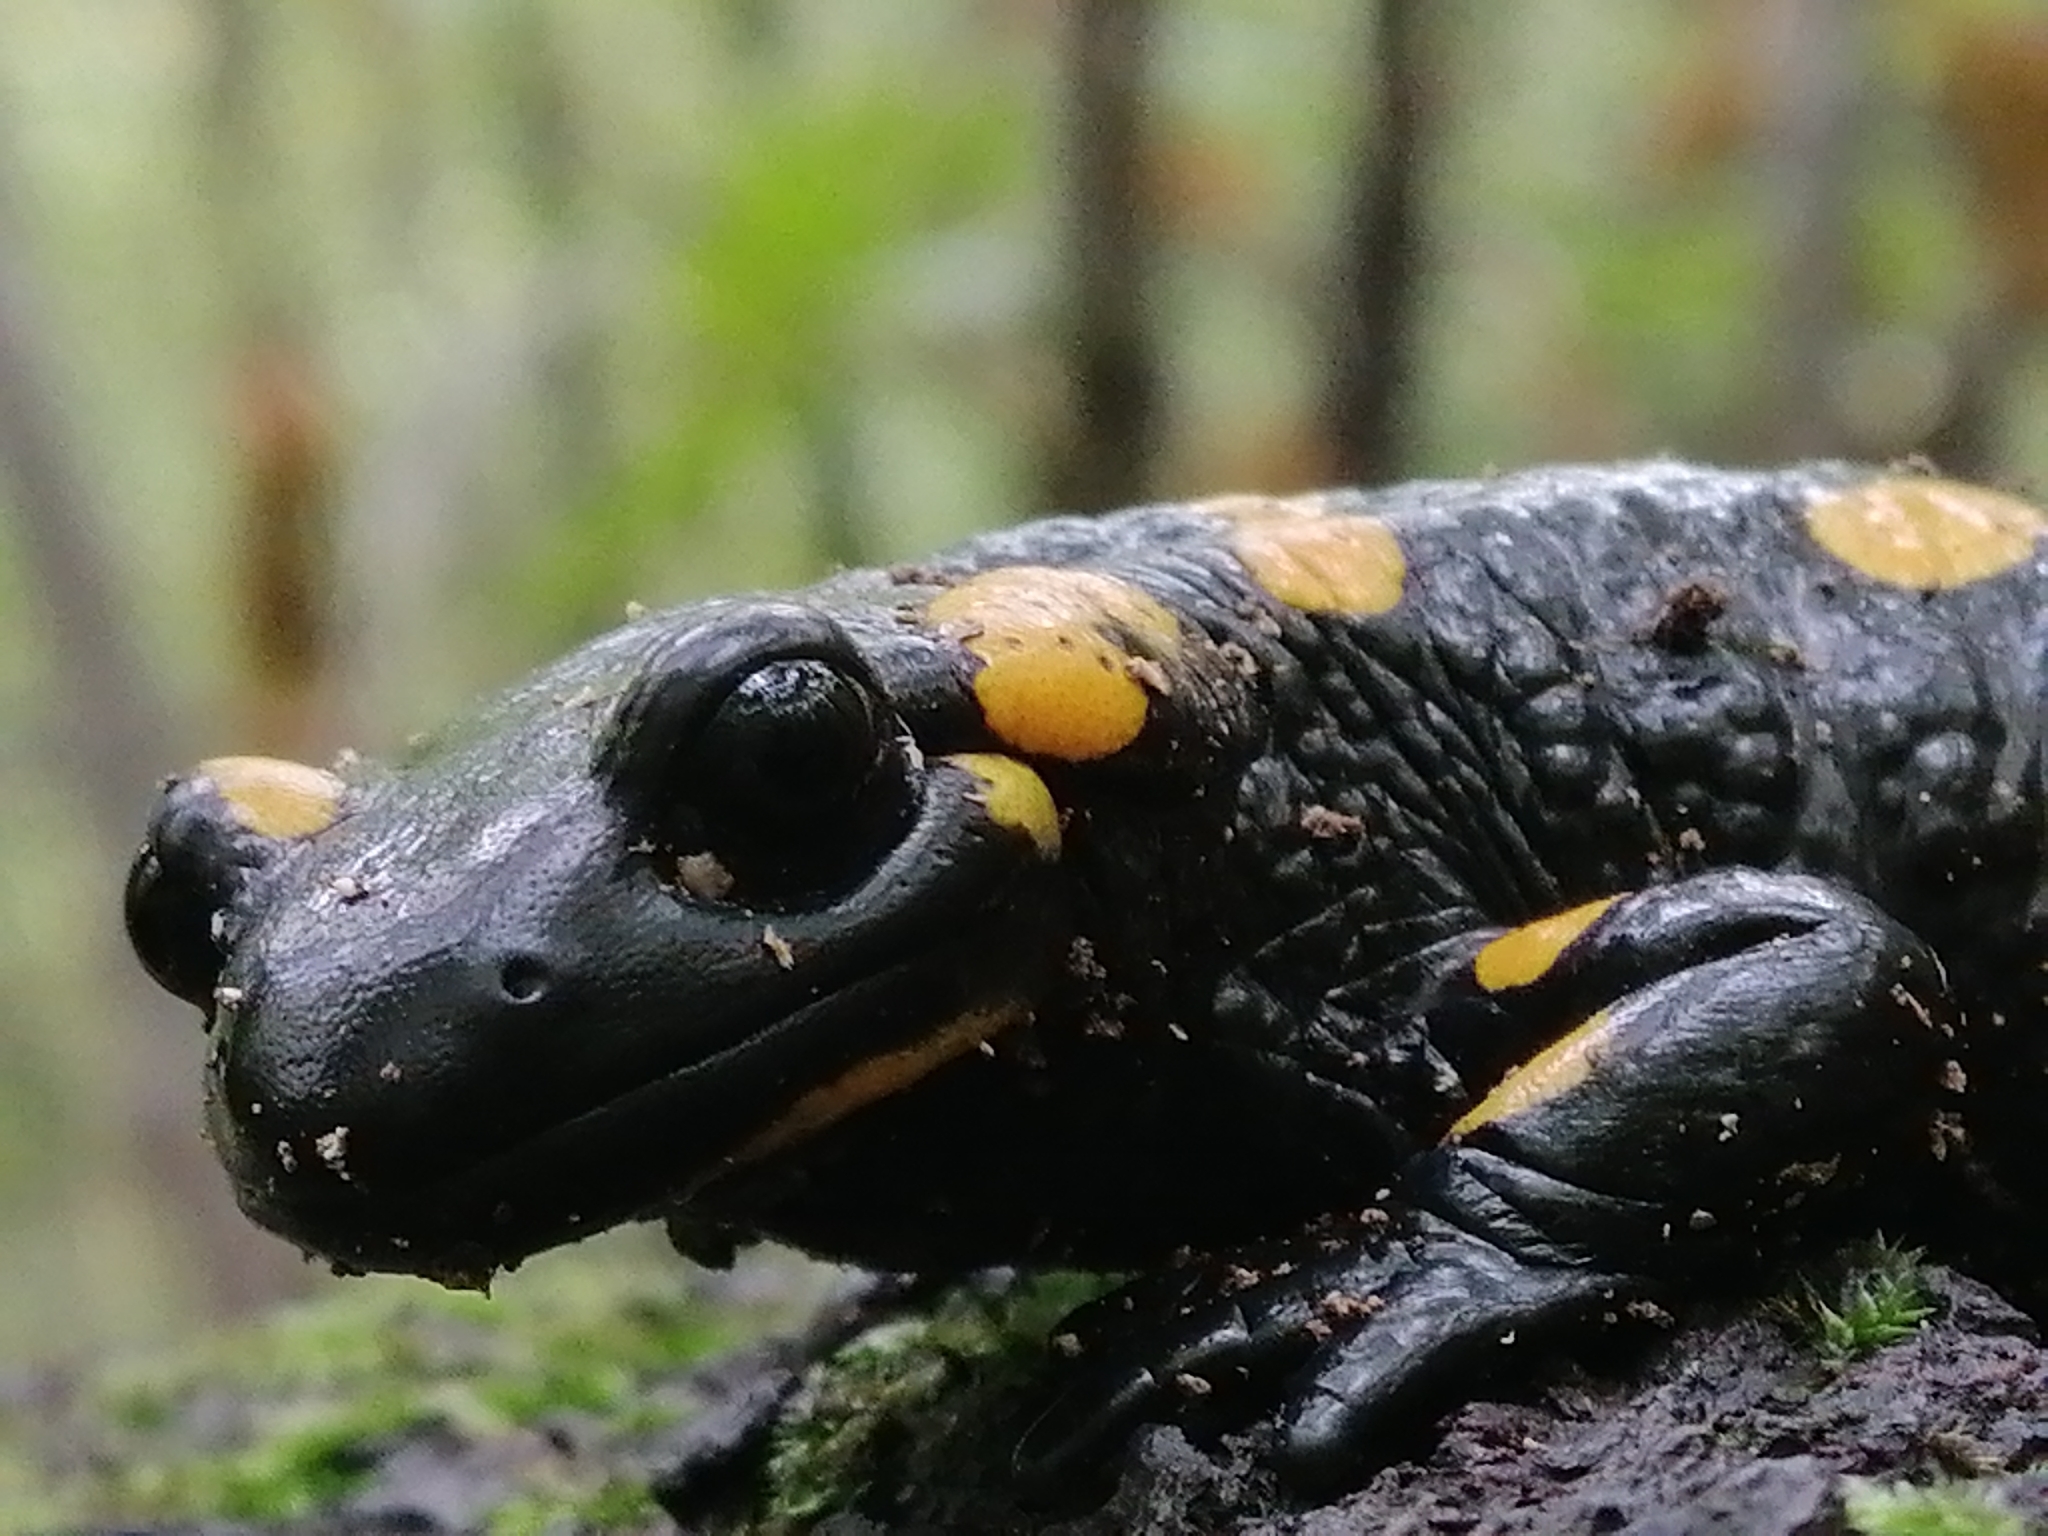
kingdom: Animalia
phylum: Chordata
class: Amphibia
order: Caudata
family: Salamandridae
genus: Salamandra
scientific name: Salamandra salamandra
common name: Fire salamander
